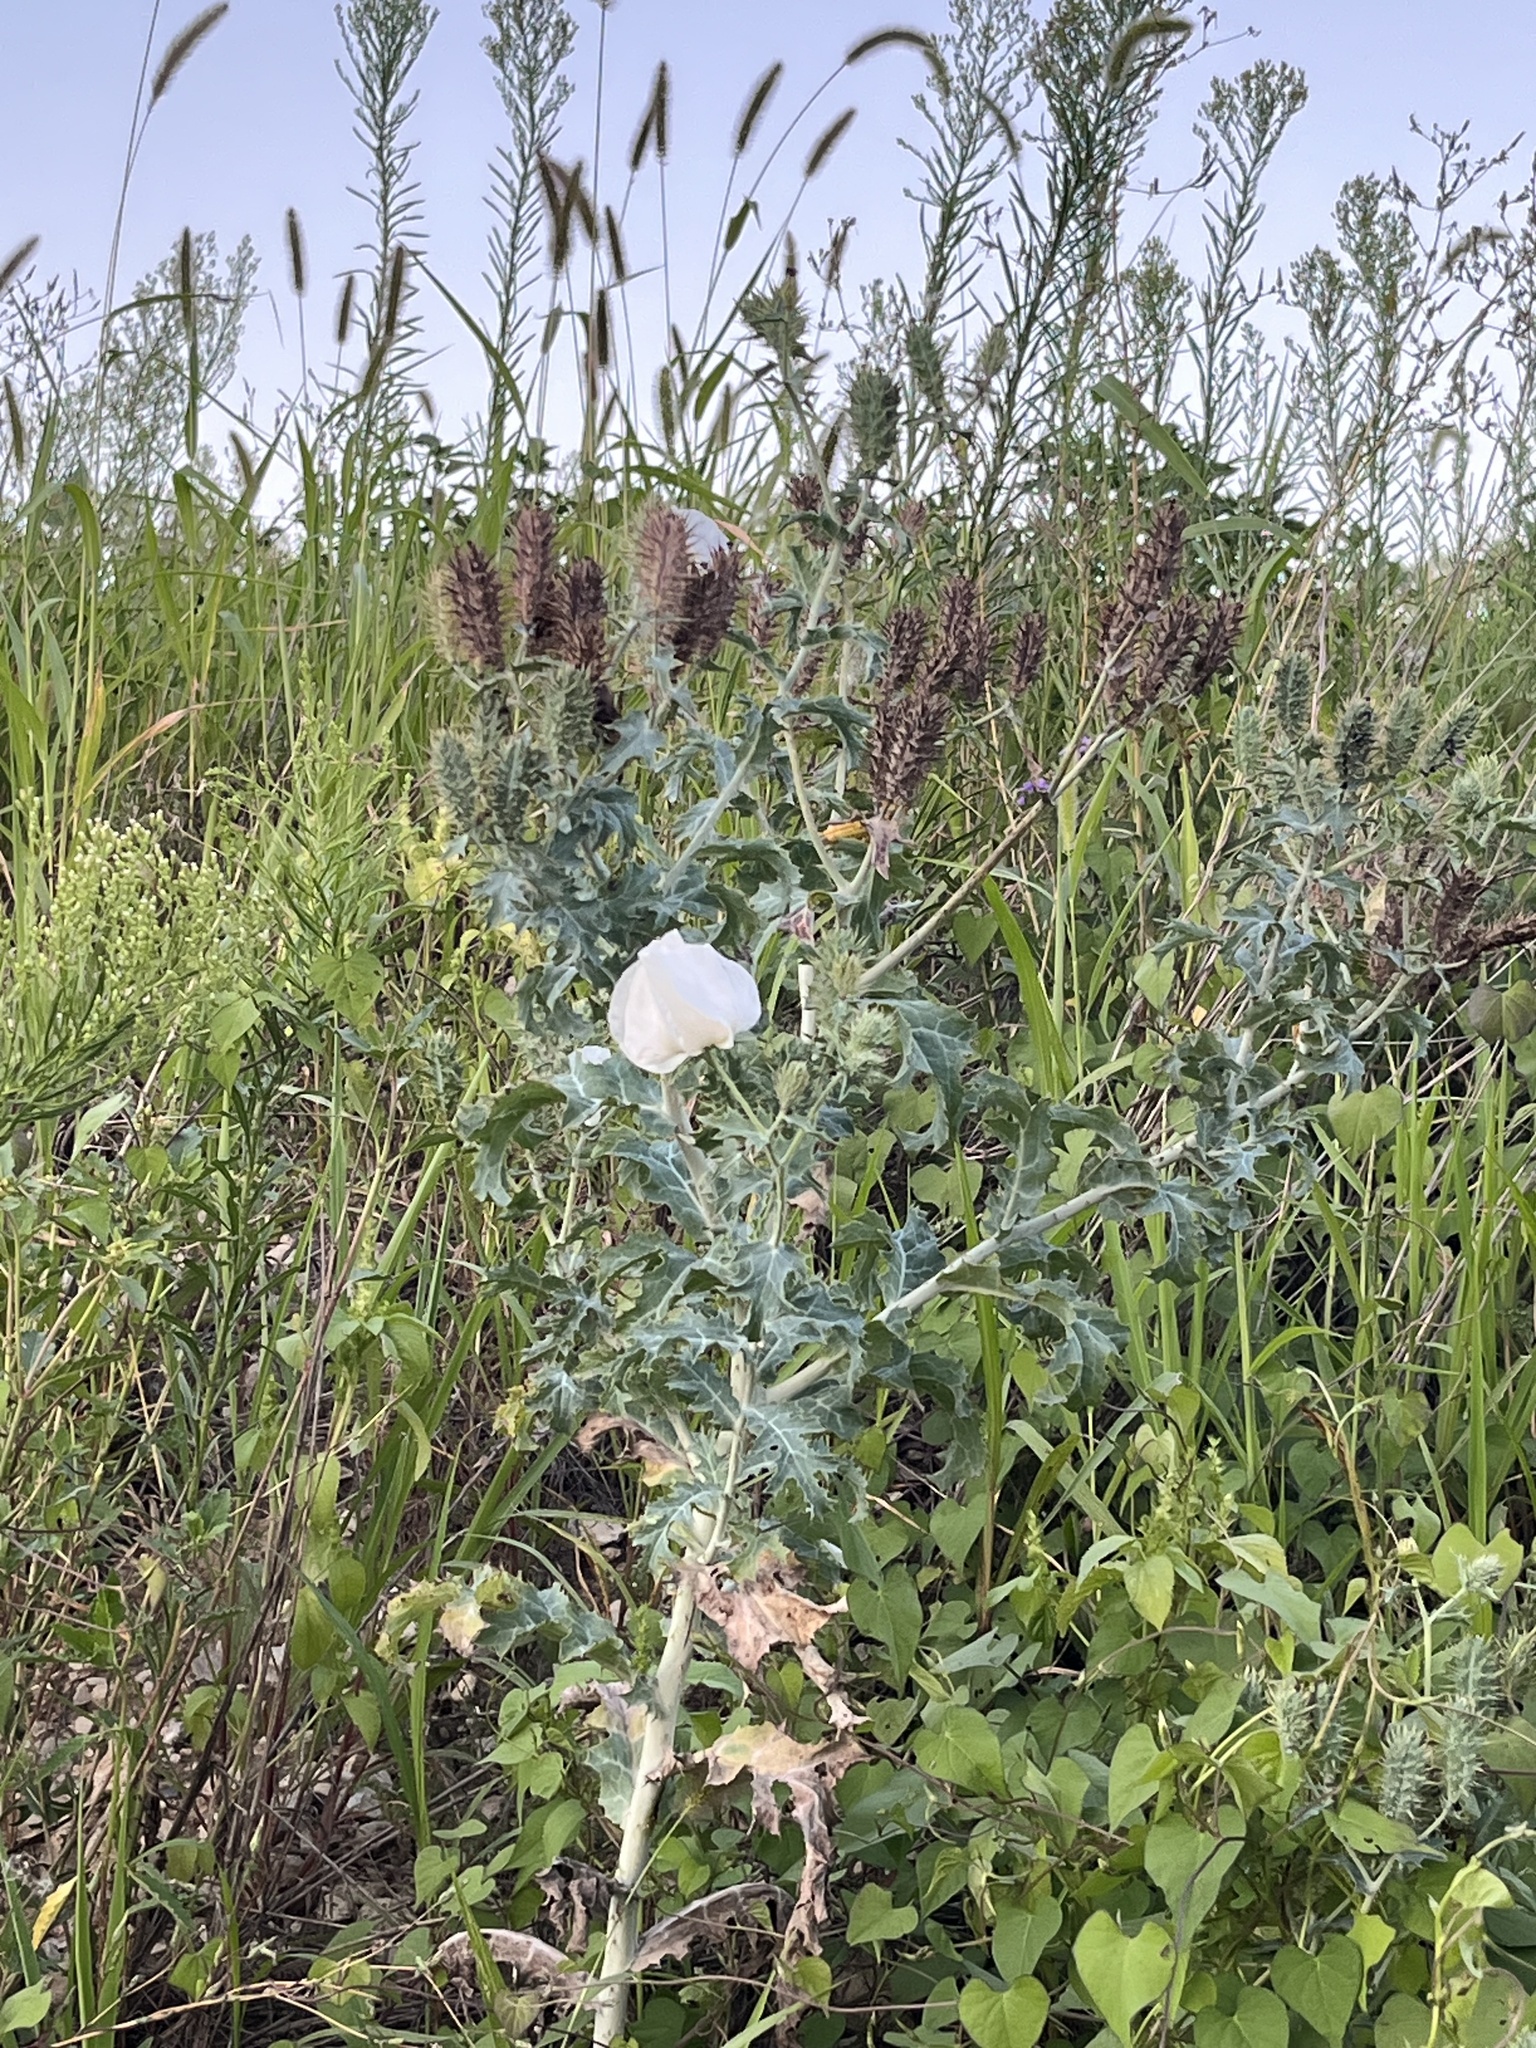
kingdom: Plantae
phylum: Tracheophyta
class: Magnoliopsida
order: Ranunculales
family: Papaveraceae
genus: Argemone
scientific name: Argemone polyanthemos
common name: Plains prickly-poppy
